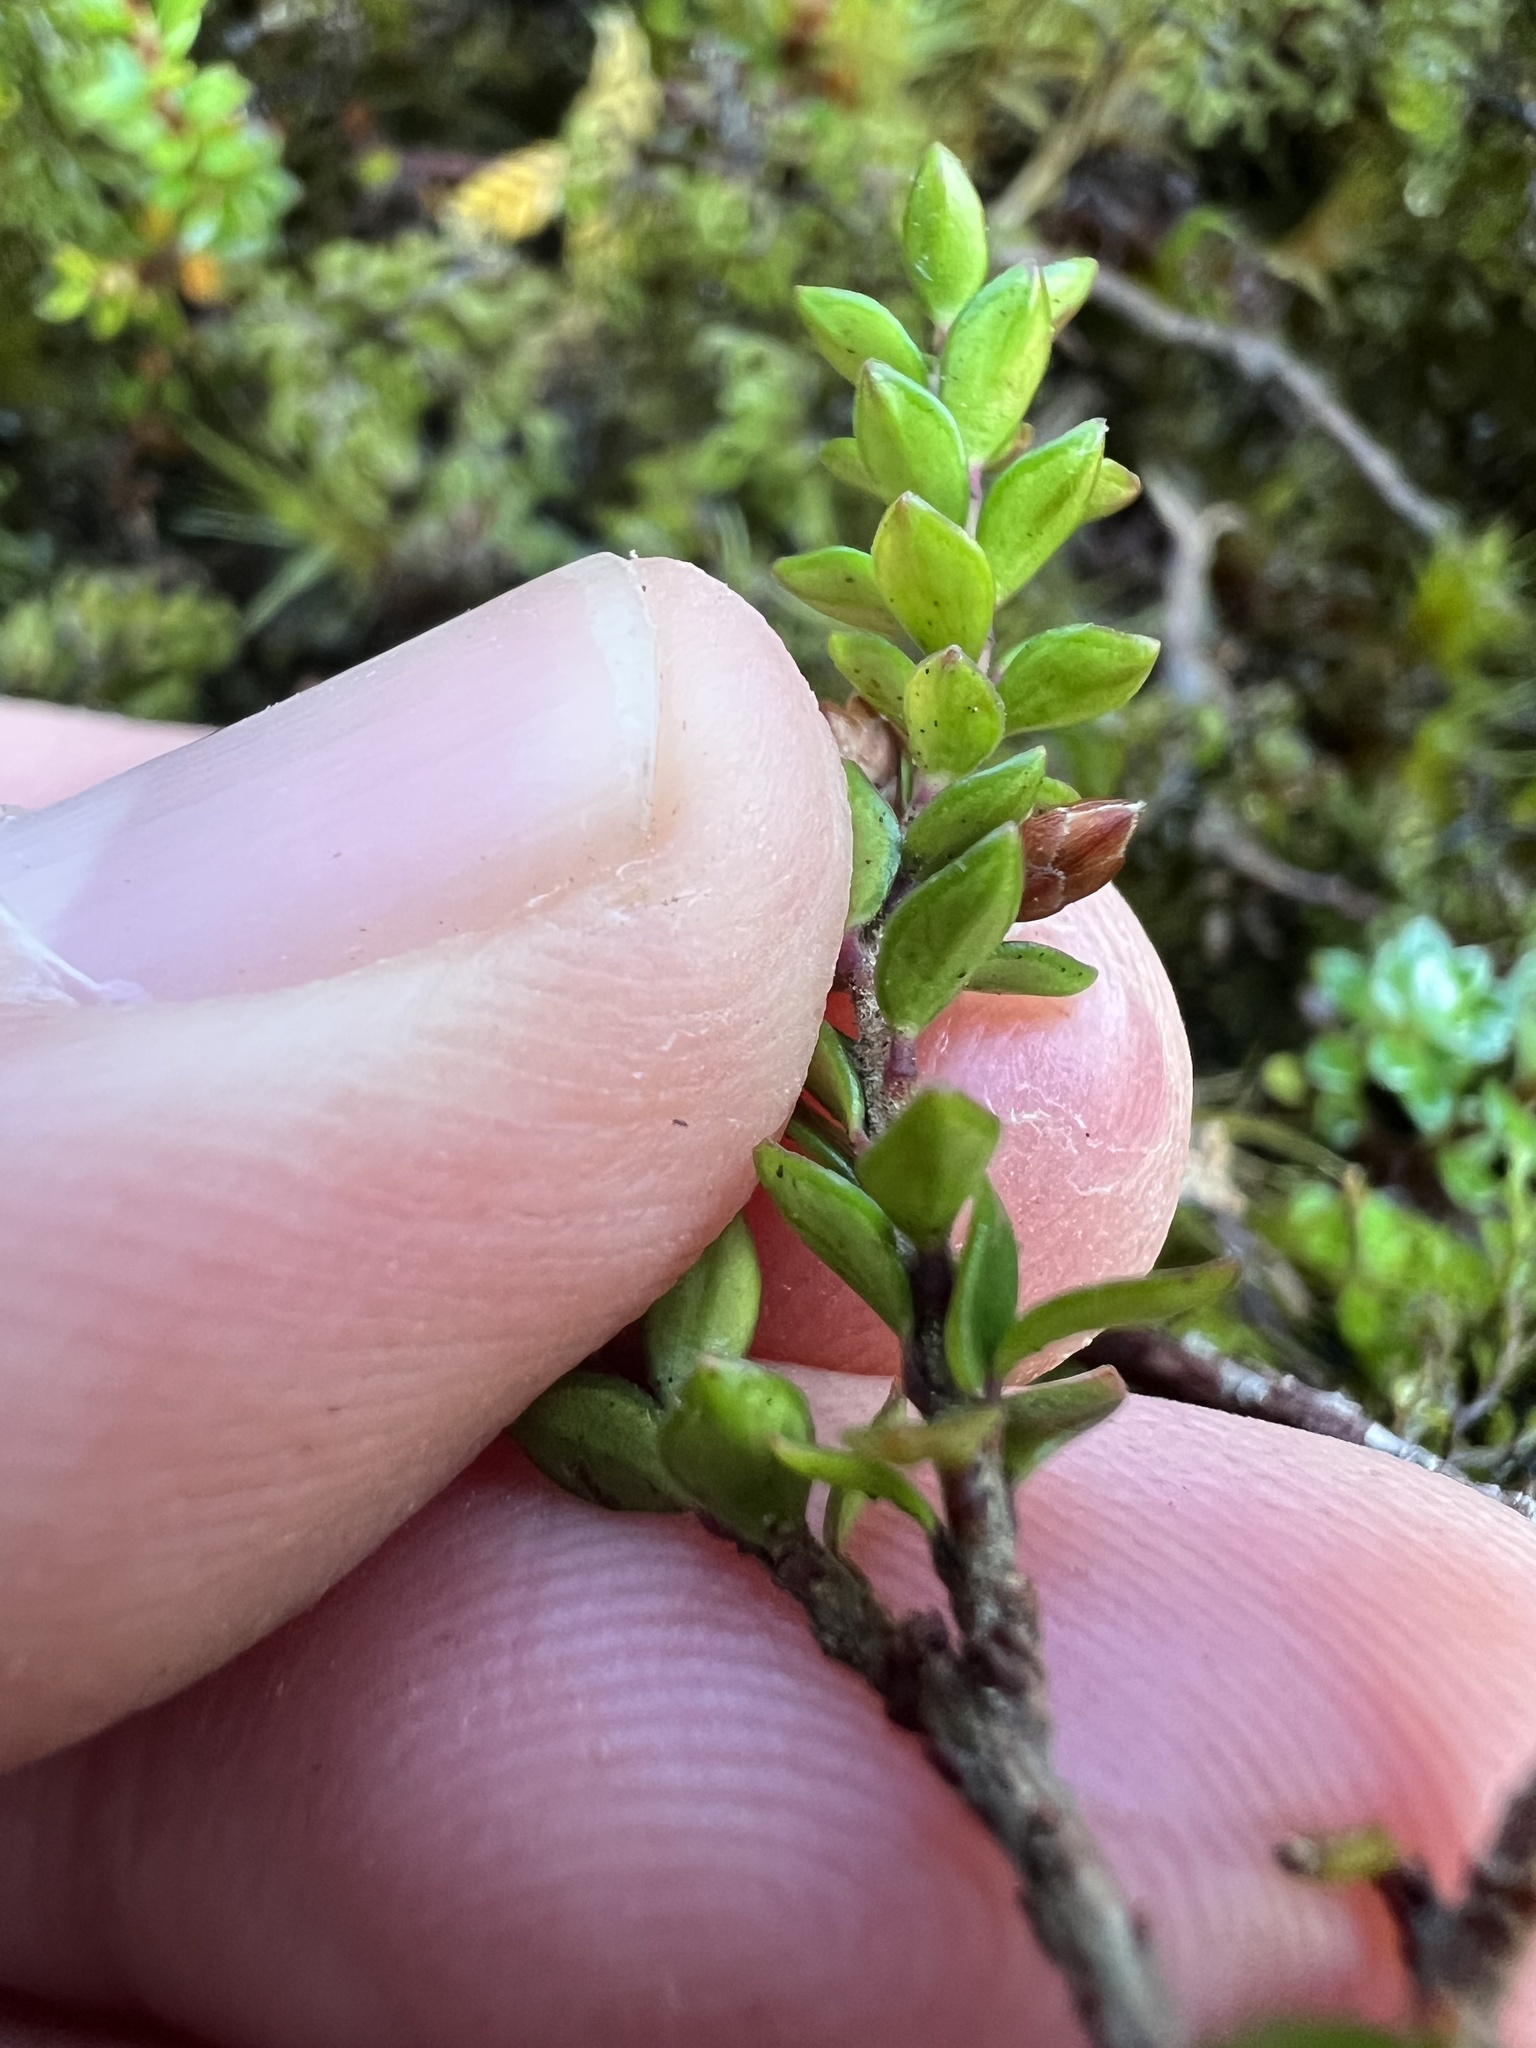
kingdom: Plantae
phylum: Tracheophyta
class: Magnoliopsida
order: Ericales
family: Ericaceae
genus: Epacris
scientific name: Epacris alpina
